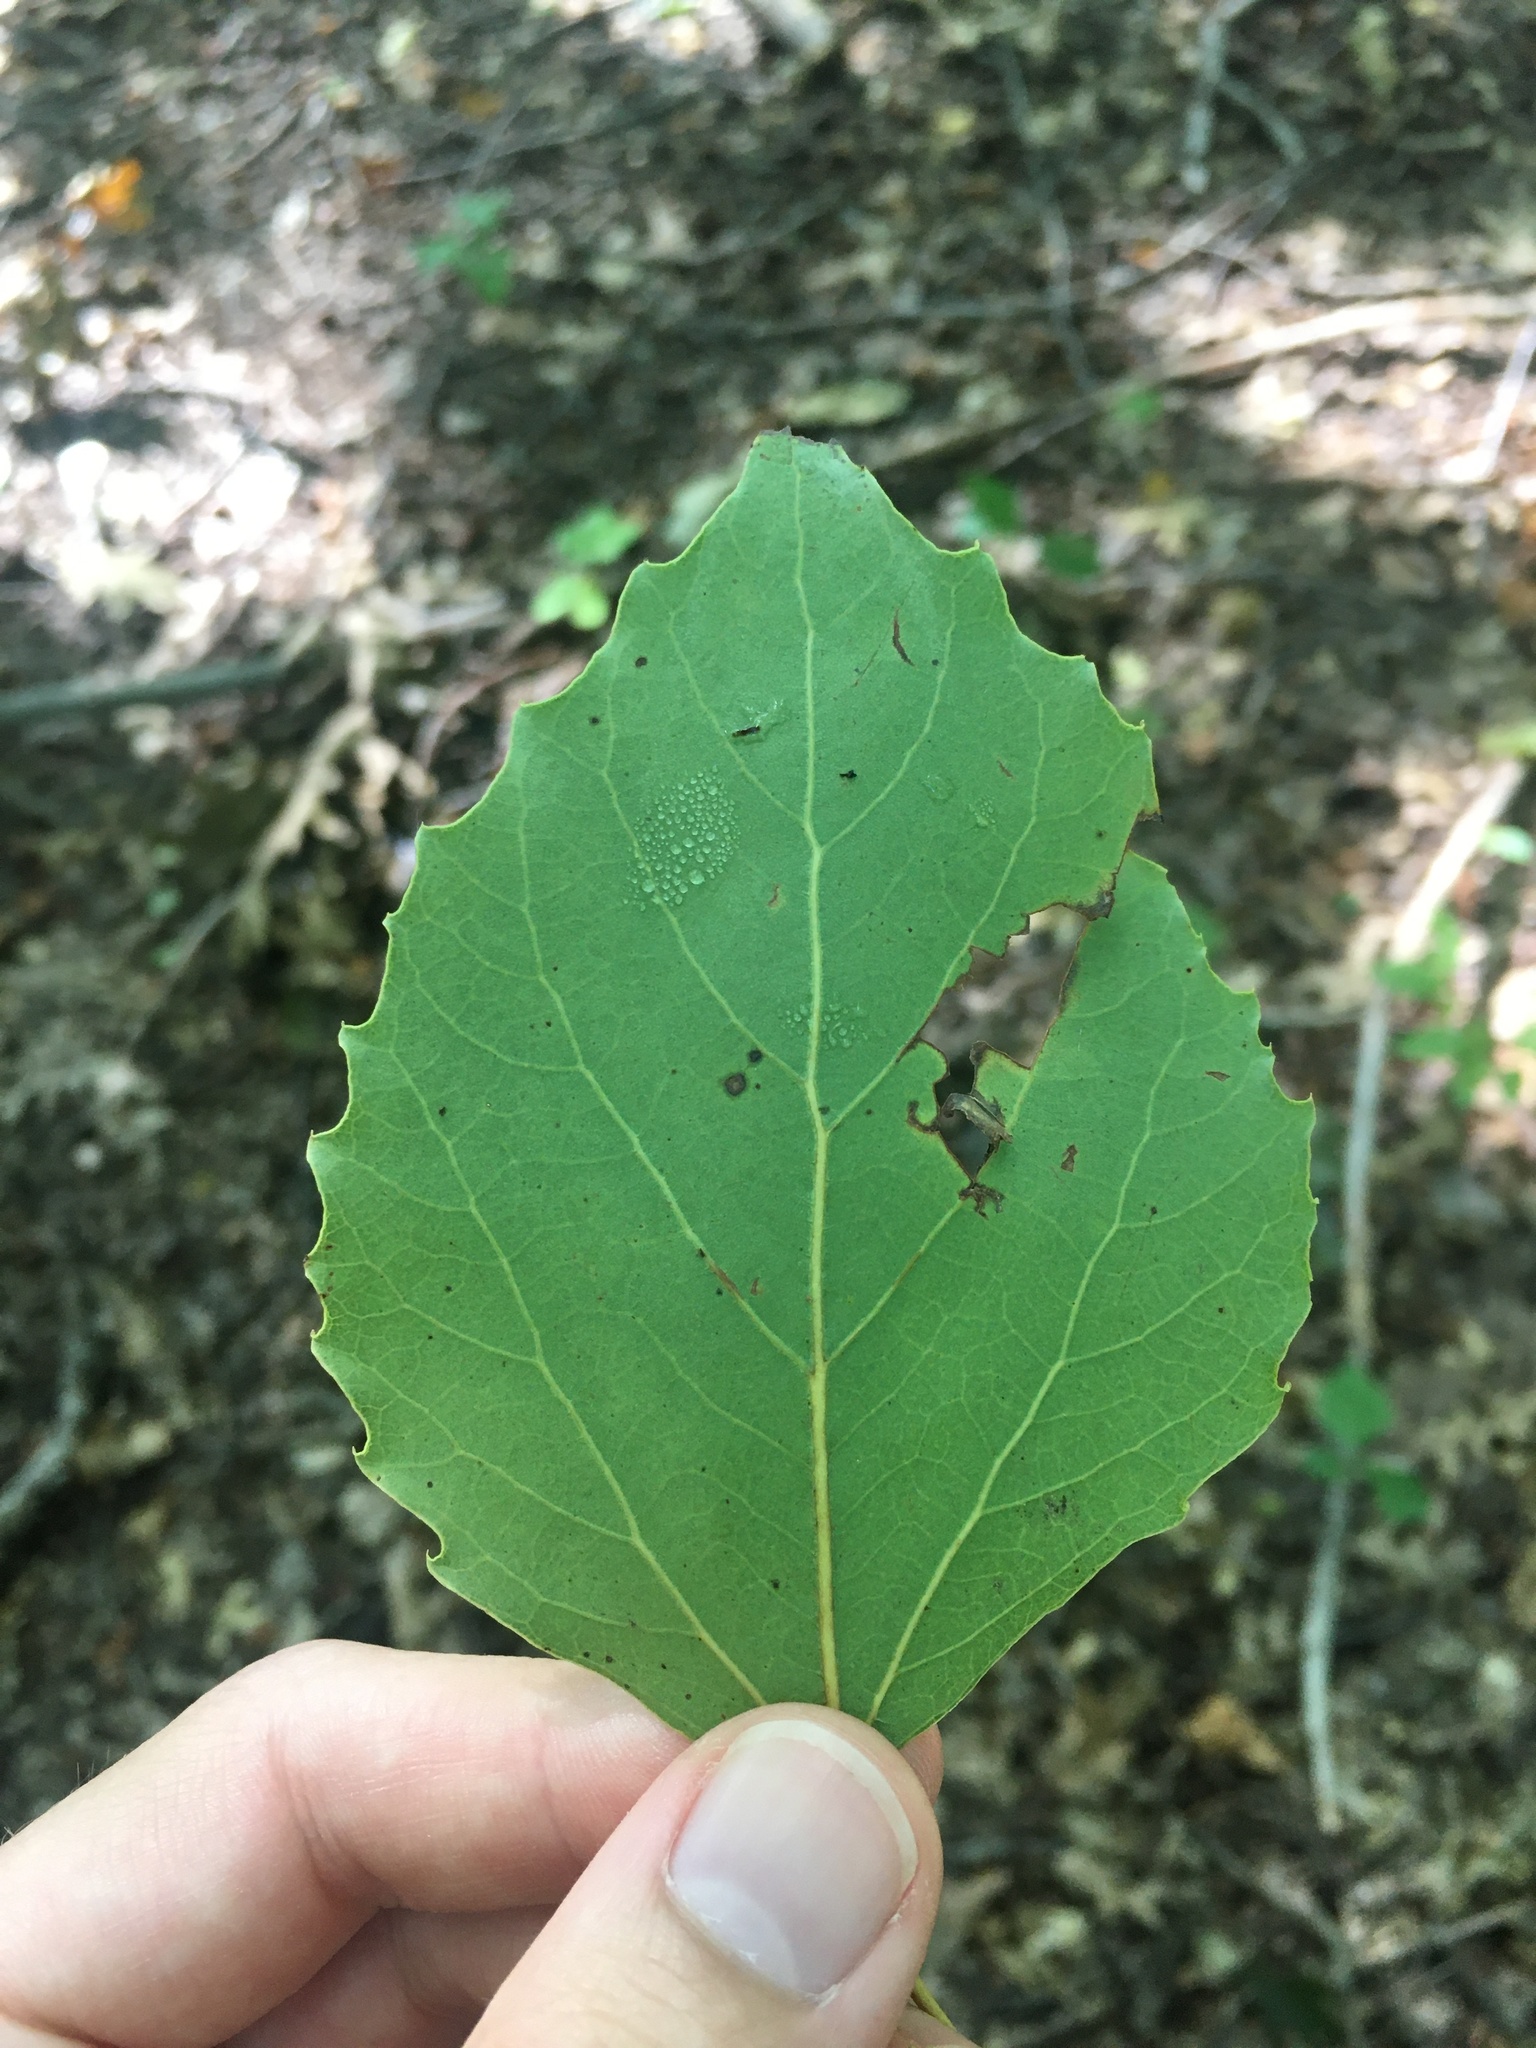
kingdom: Plantae
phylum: Tracheophyta
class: Magnoliopsida
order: Malpighiales
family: Salicaceae
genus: Populus
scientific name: Populus grandidentata
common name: Bigtooth aspen
